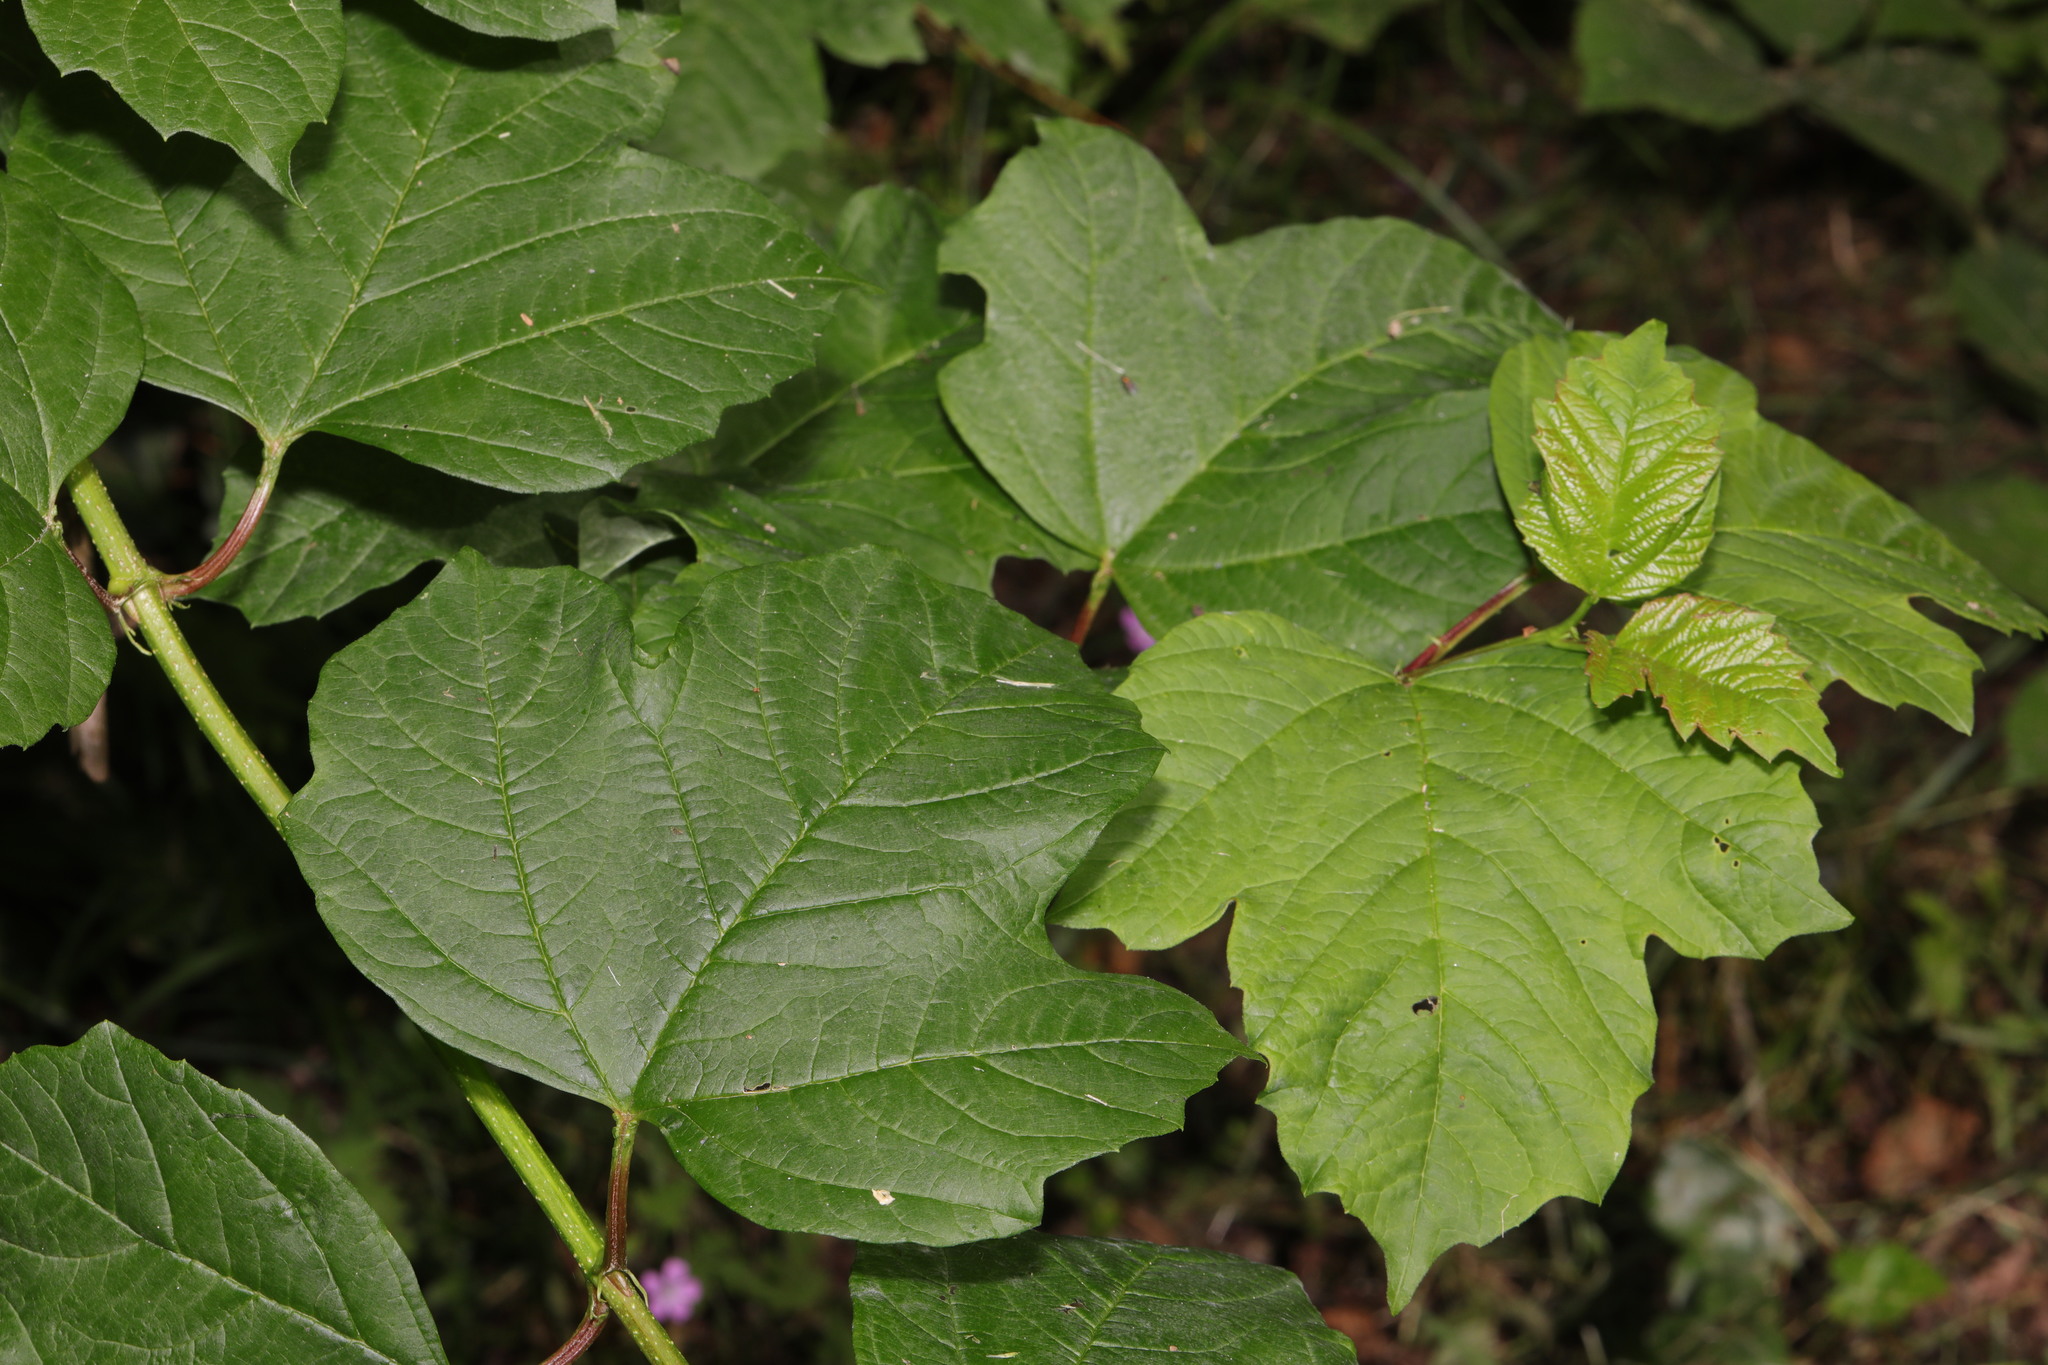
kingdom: Plantae
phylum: Tracheophyta
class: Magnoliopsida
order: Dipsacales
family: Viburnaceae
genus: Viburnum
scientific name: Viburnum opulus
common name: Guelder-rose
